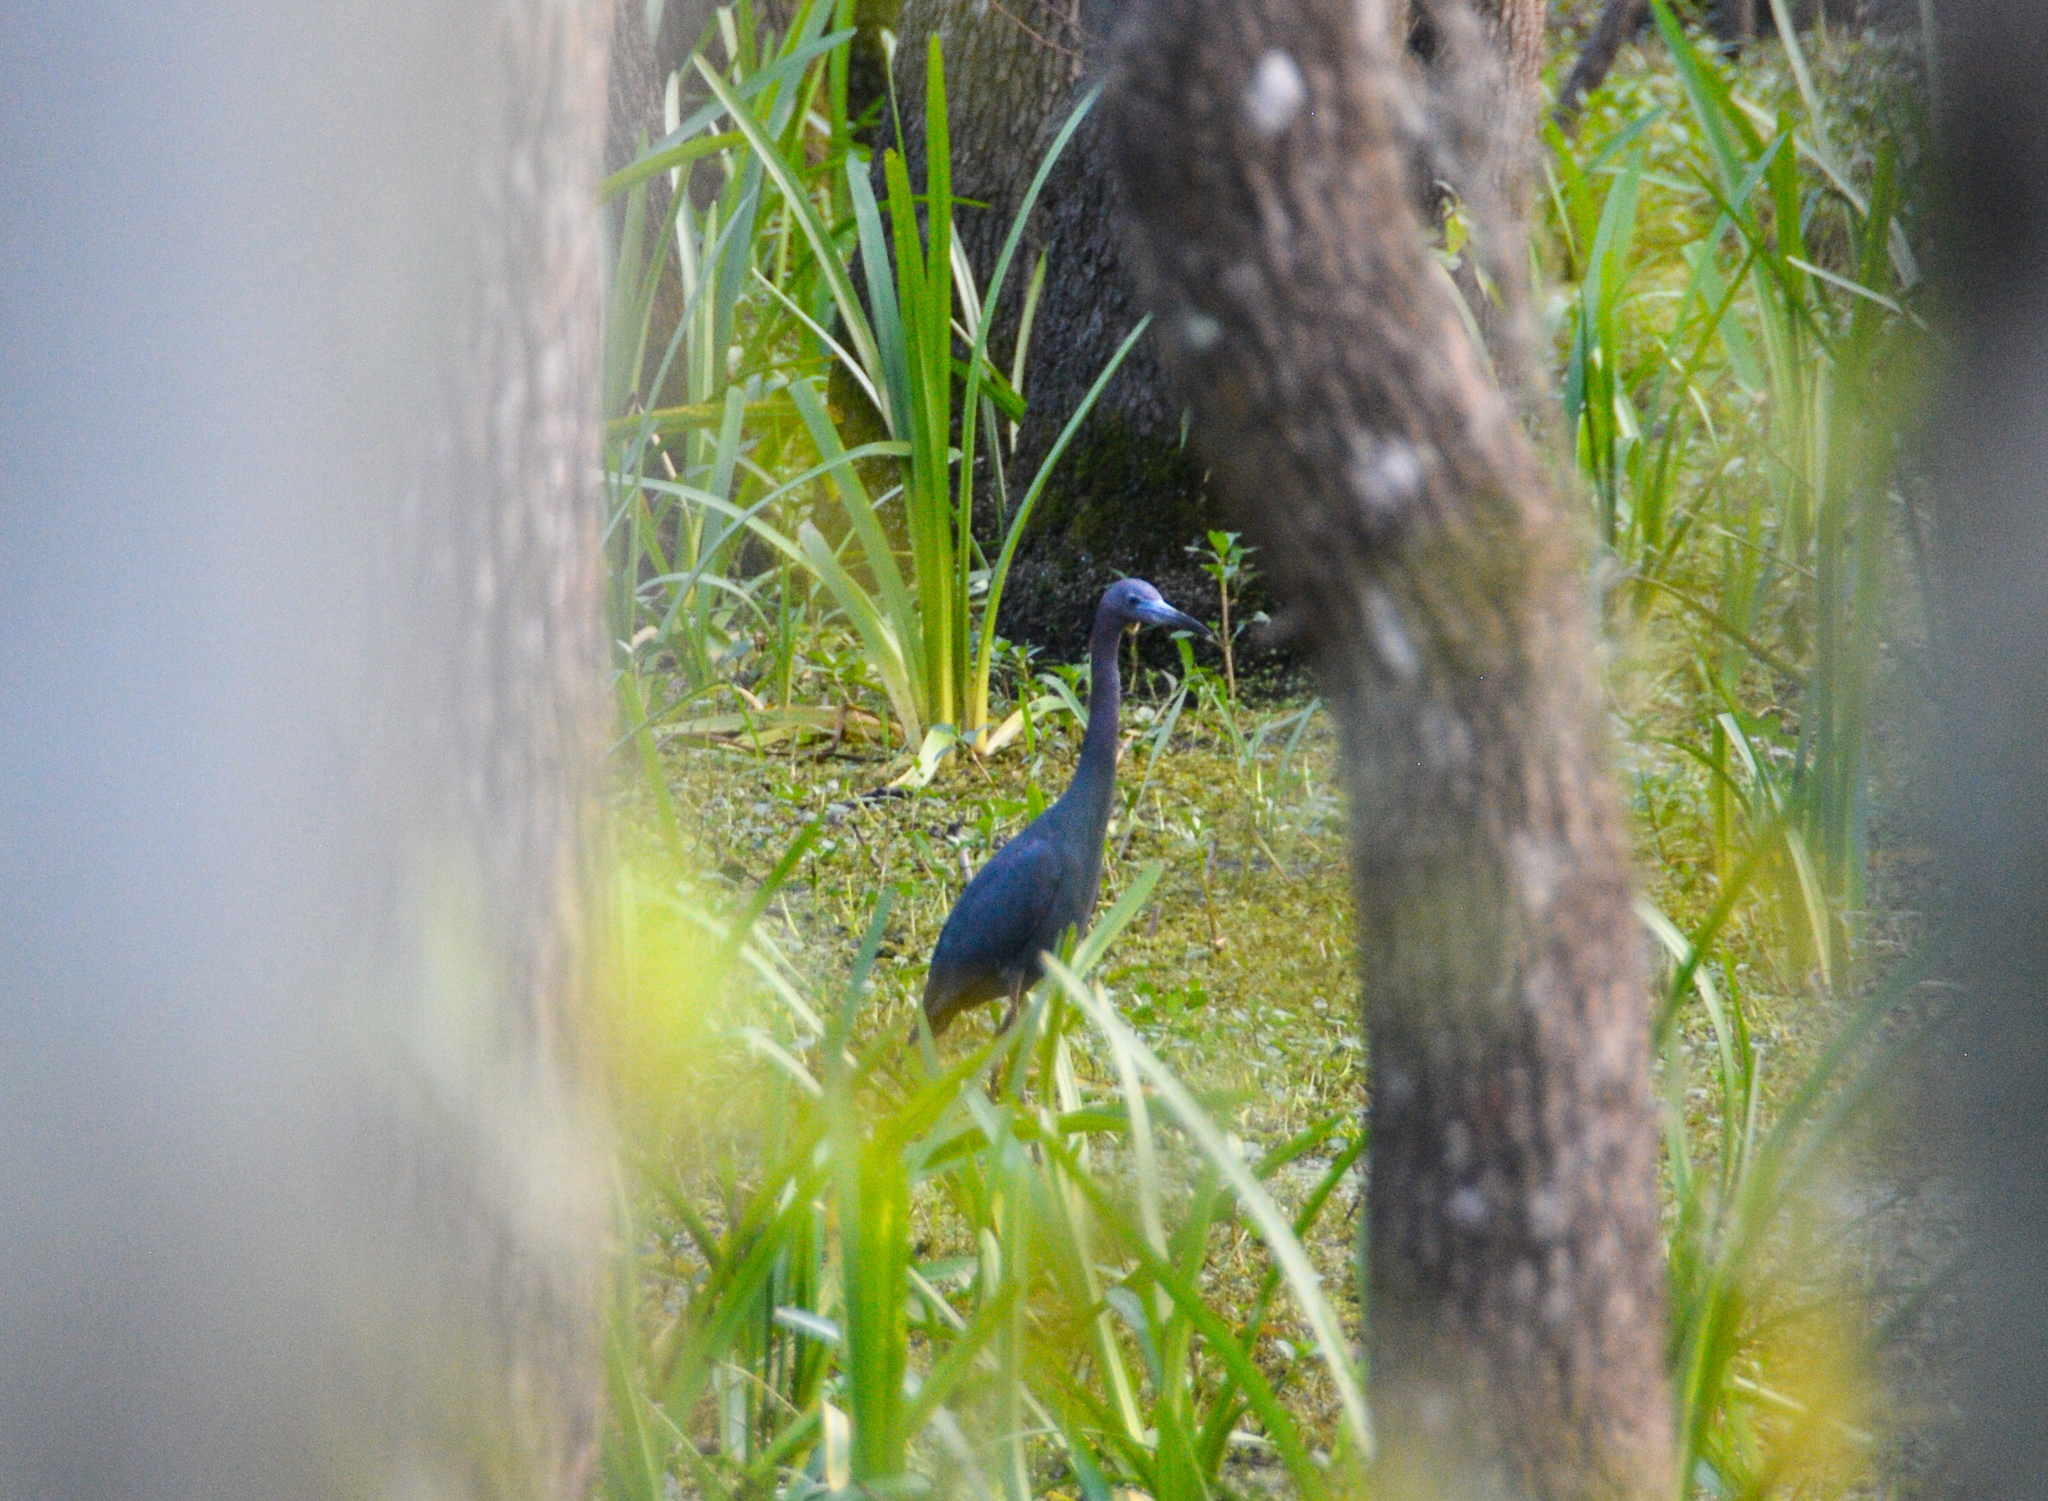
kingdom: Animalia
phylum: Chordata
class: Aves
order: Pelecaniformes
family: Ardeidae
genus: Egretta
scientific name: Egretta caerulea
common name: Little blue heron
